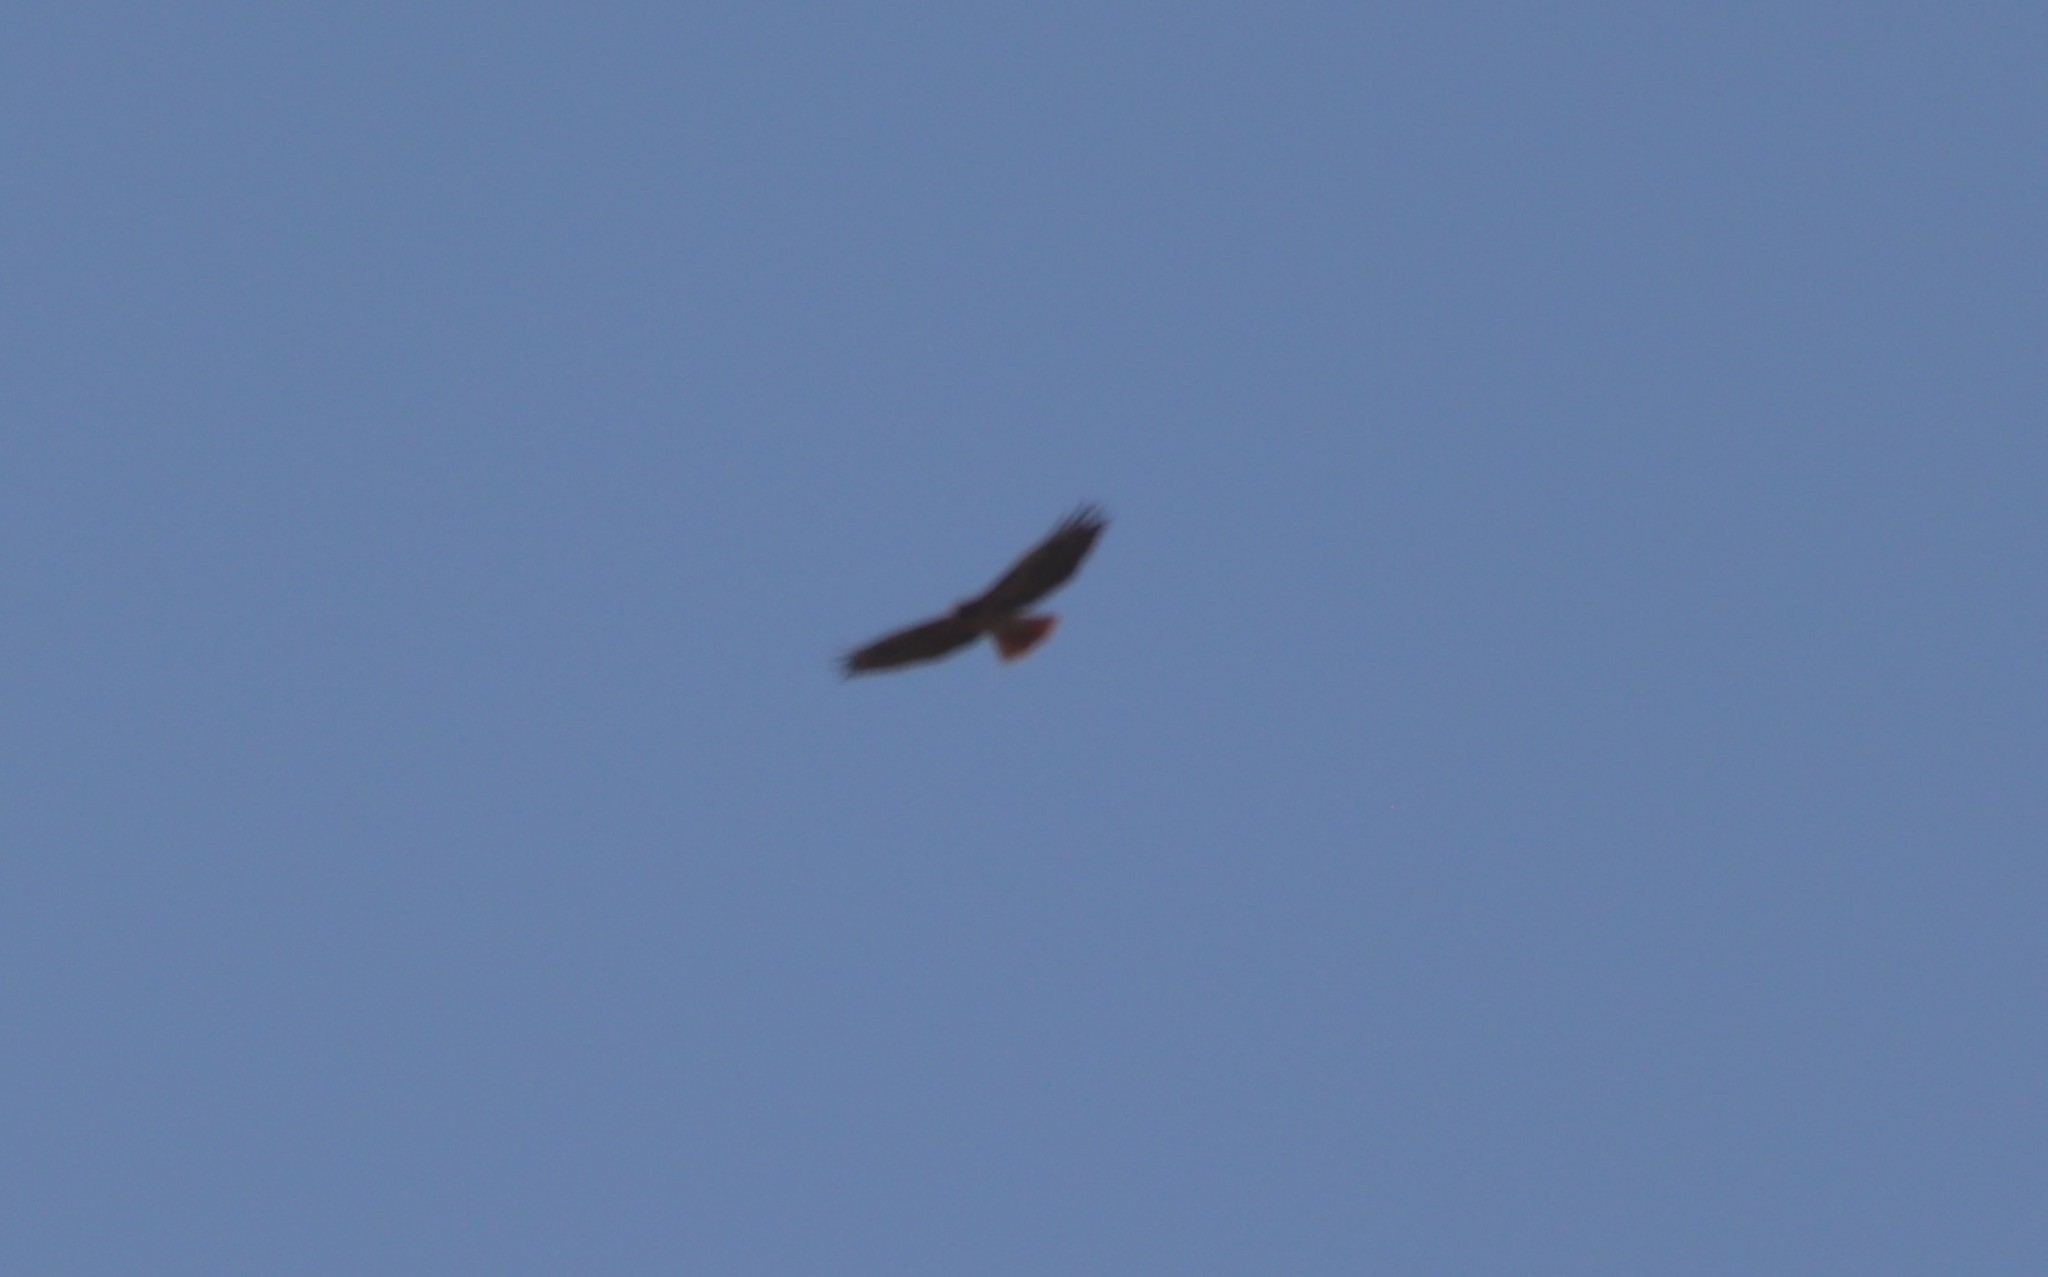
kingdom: Animalia
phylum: Chordata
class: Aves
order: Accipitriformes
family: Accipitridae
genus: Buteo
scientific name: Buteo jamaicensis
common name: Red-tailed hawk
